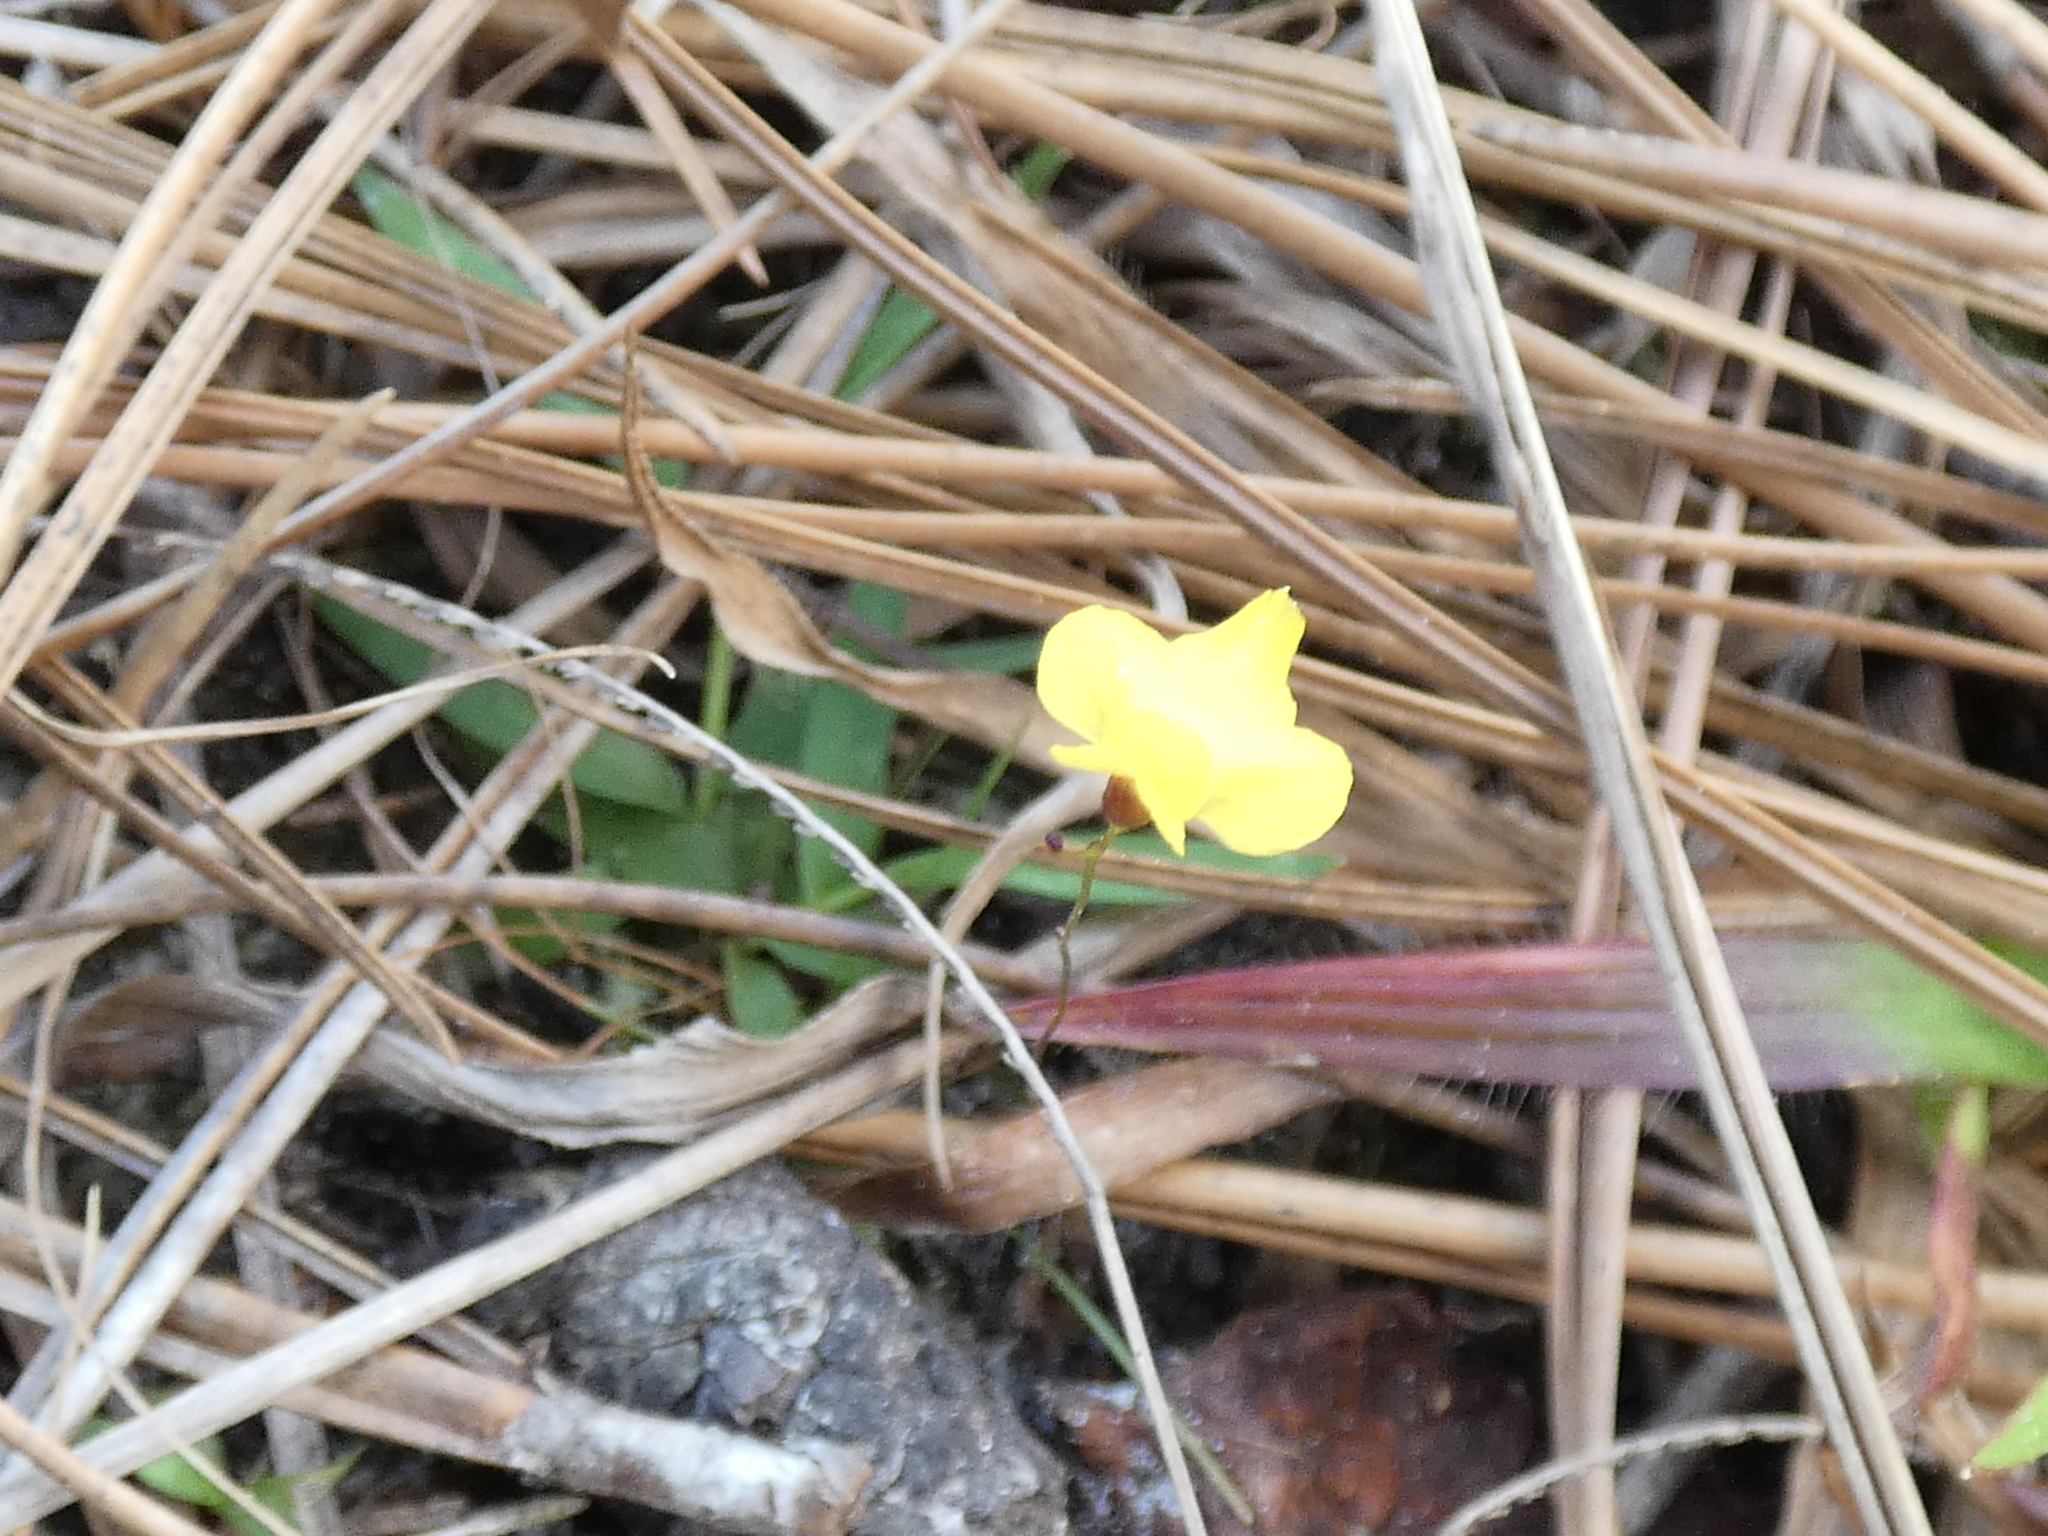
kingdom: Plantae
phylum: Tracheophyta
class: Magnoliopsida
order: Lamiales
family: Lentibulariaceae
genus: Utricularia
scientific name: Utricularia subulata
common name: Tiny bladderwort
